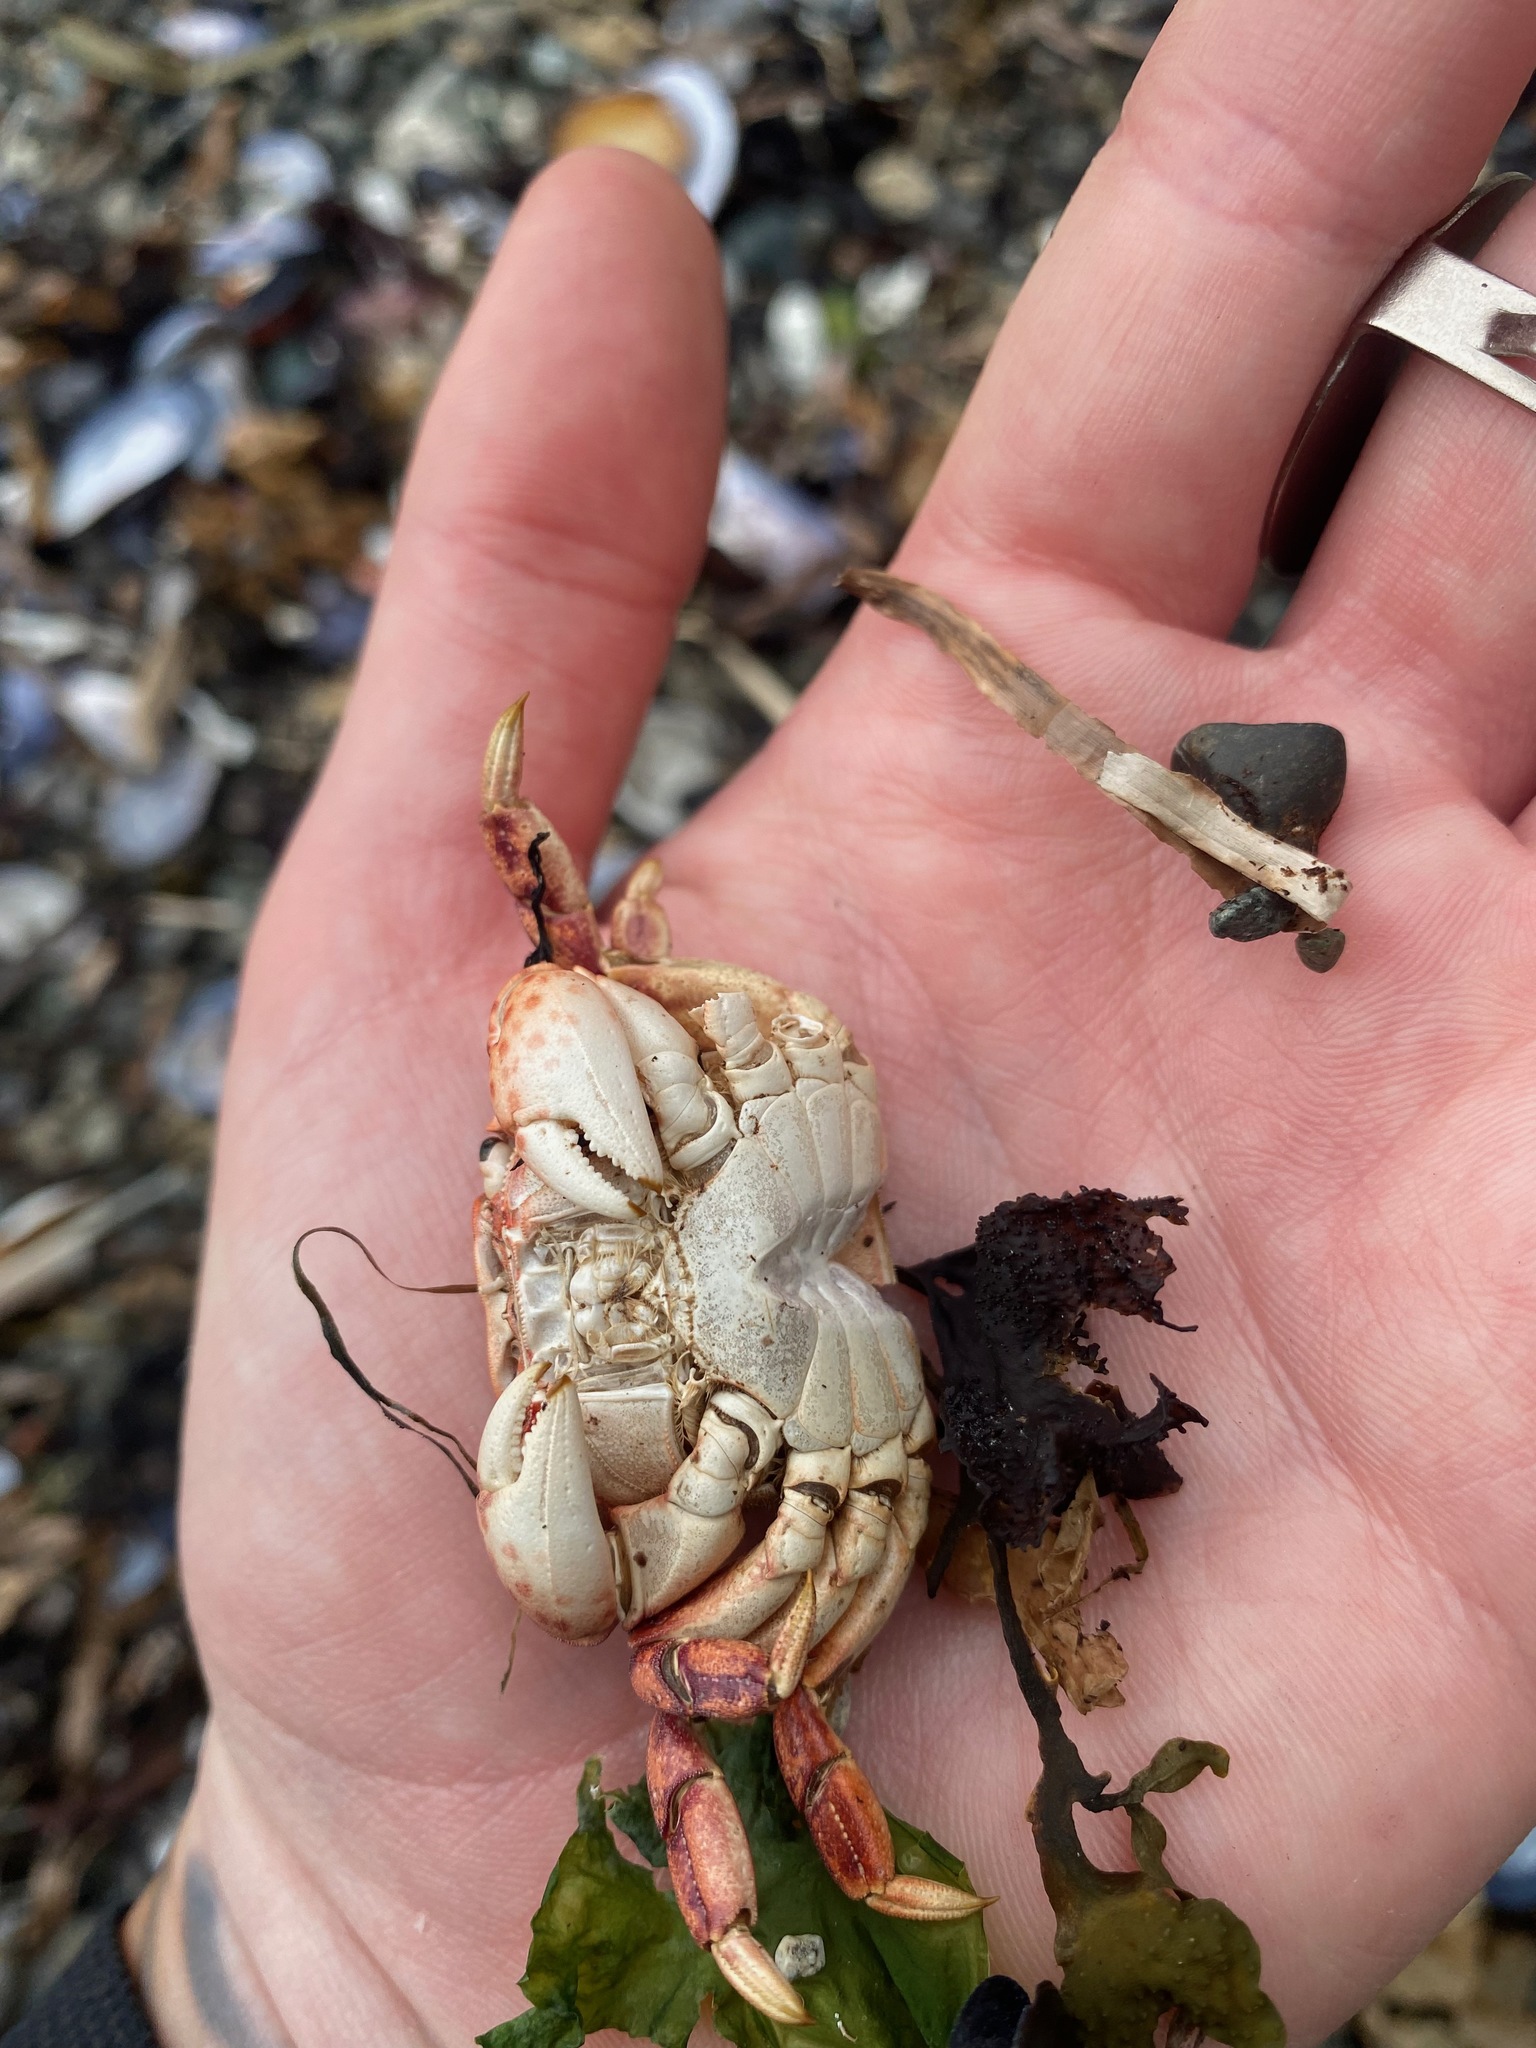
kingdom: Animalia
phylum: Arthropoda
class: Malacostraca
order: Decapoda
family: Varunidae
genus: Hemigrapsus
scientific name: Hemigrapsus nudus
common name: Purple shore crab
